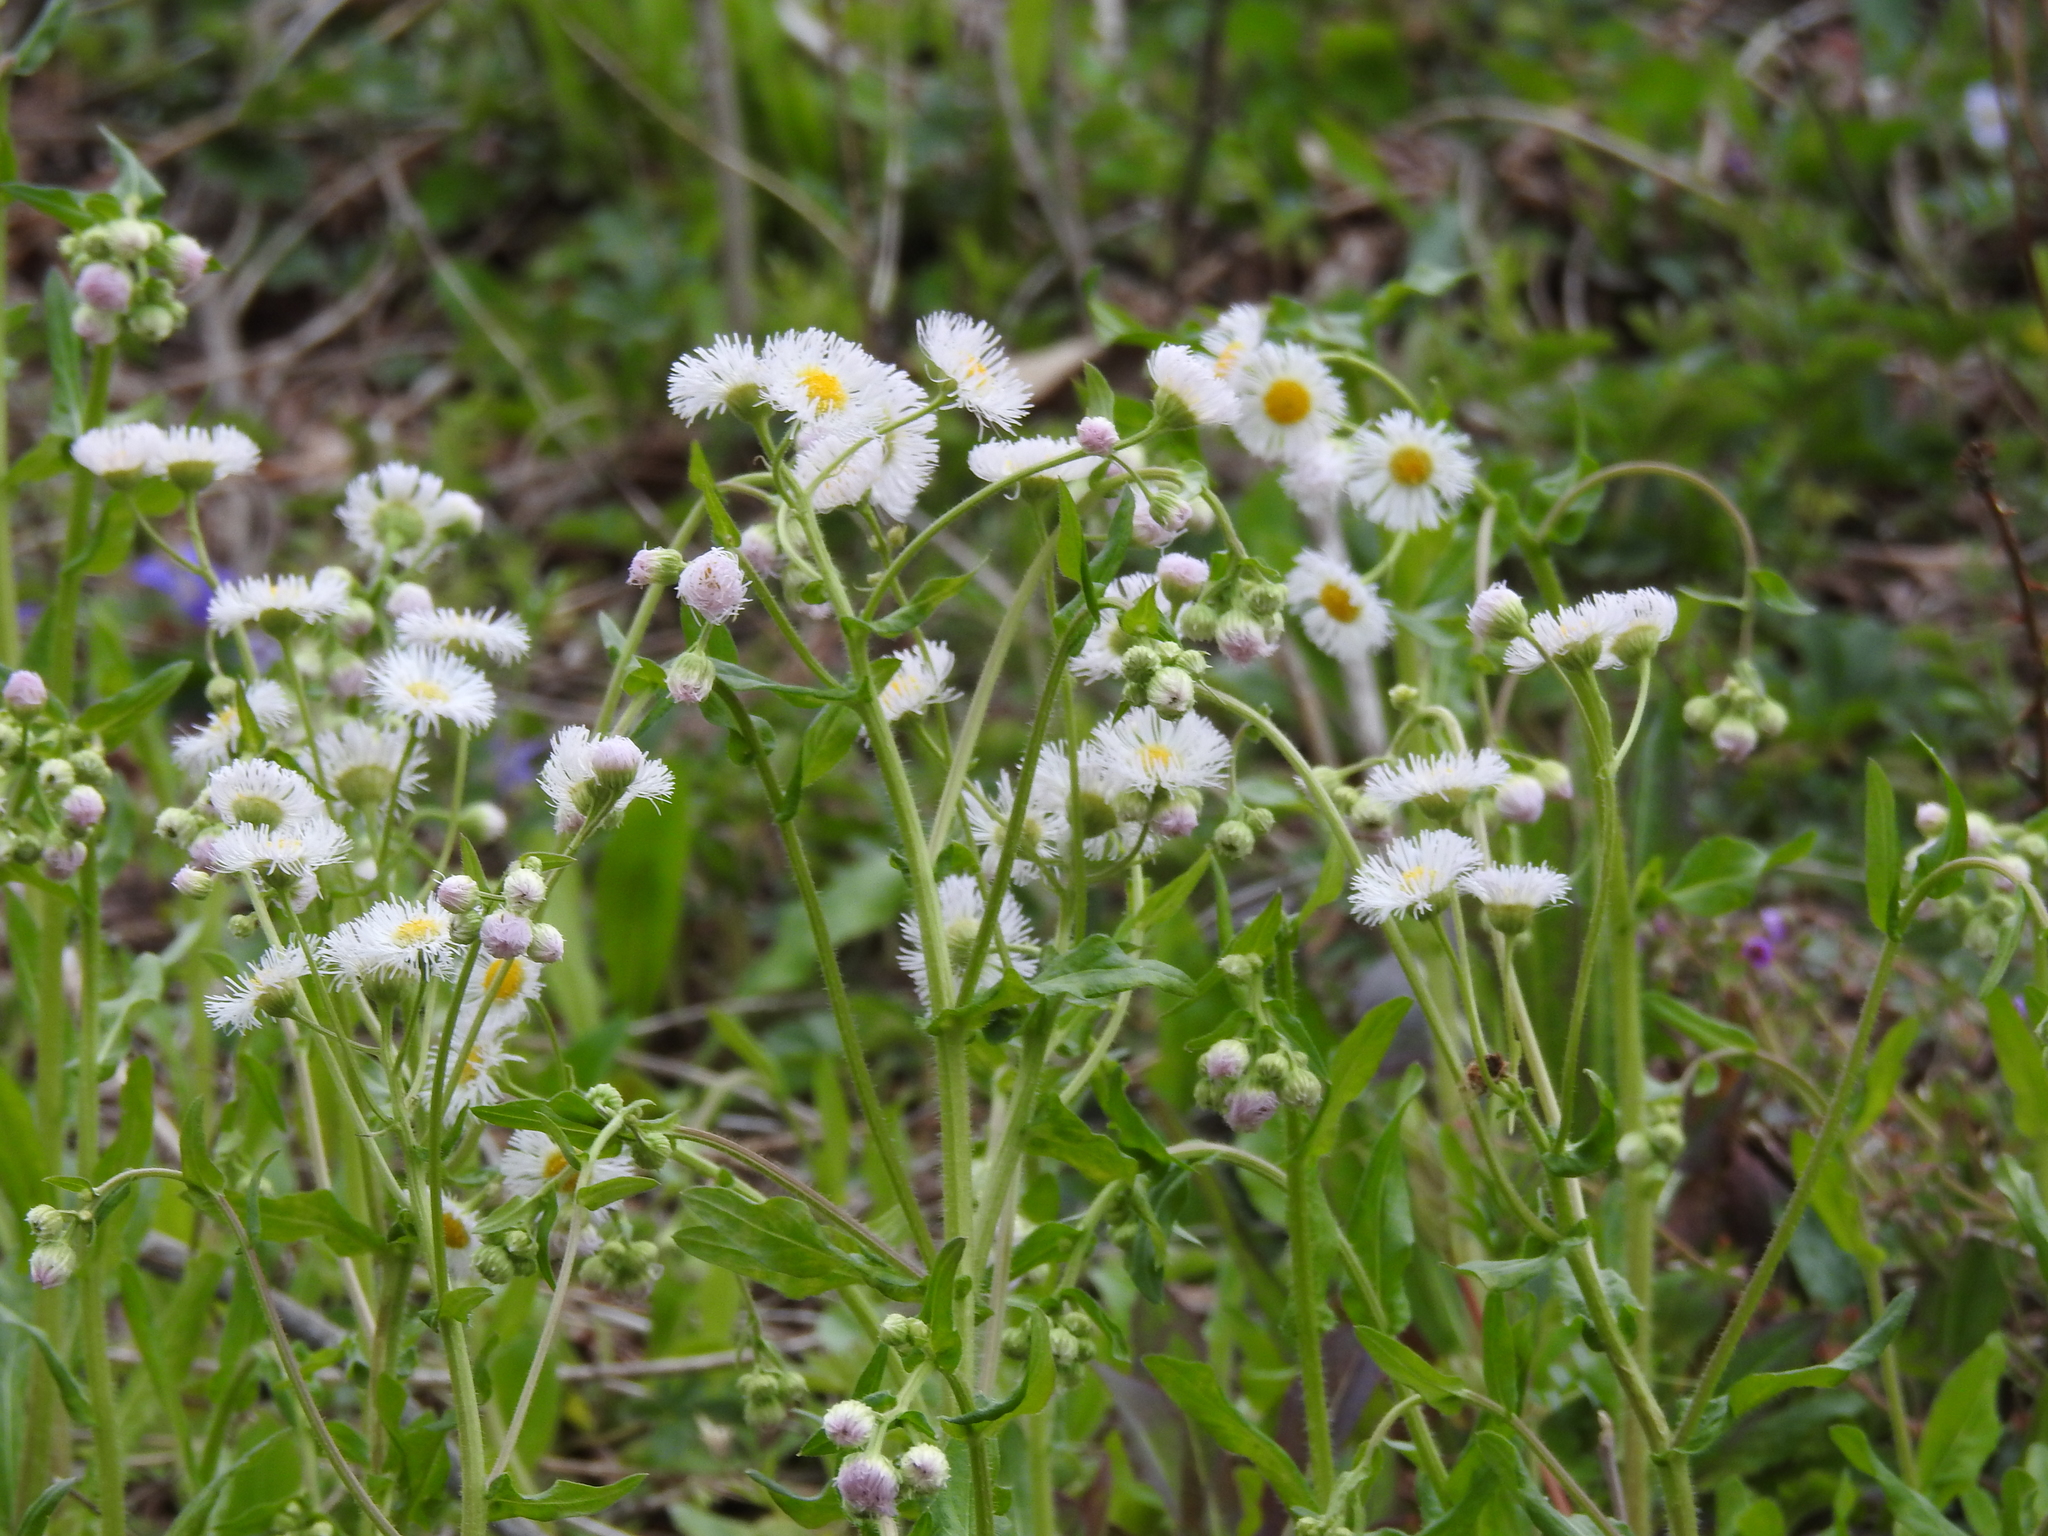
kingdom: Plantae
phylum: Tracheophyta
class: Magnoliopsida
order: Asterales
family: Asteraceae
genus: Erigeron
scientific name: Erigeron philadelphicus
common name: Robin's-plantain
